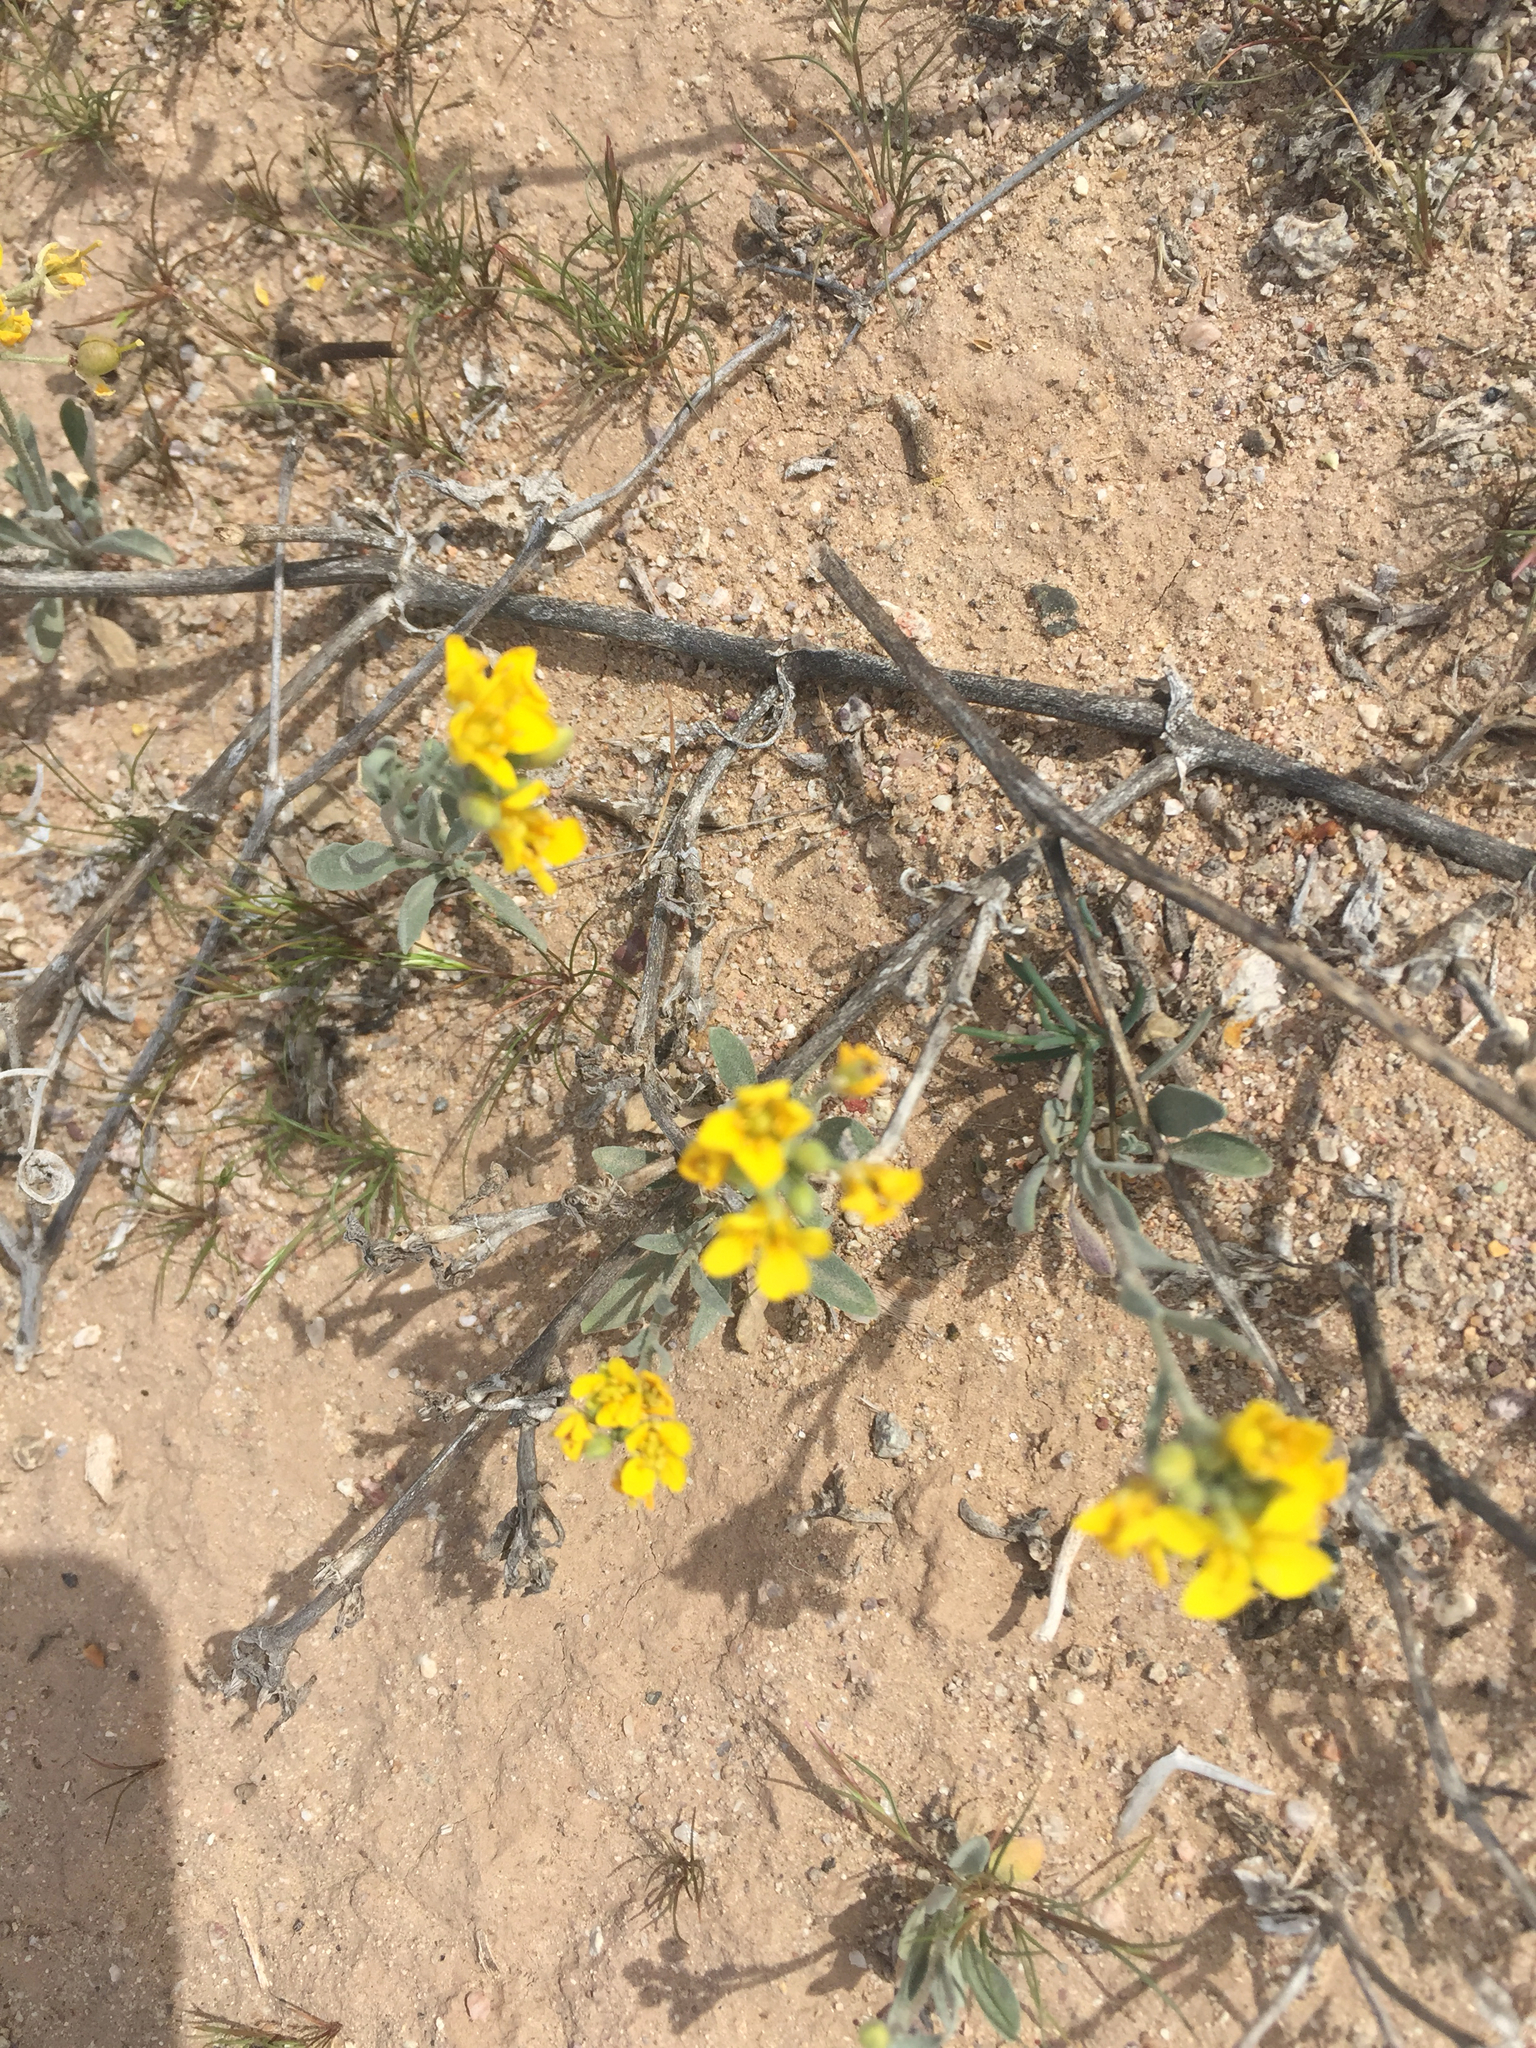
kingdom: Plantae
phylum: Tracheophyta
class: Magnoliopsida
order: Brassicales
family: Brassicaceae
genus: Physaria
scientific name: Physaria gordonii
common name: Gordon's bladderpod
